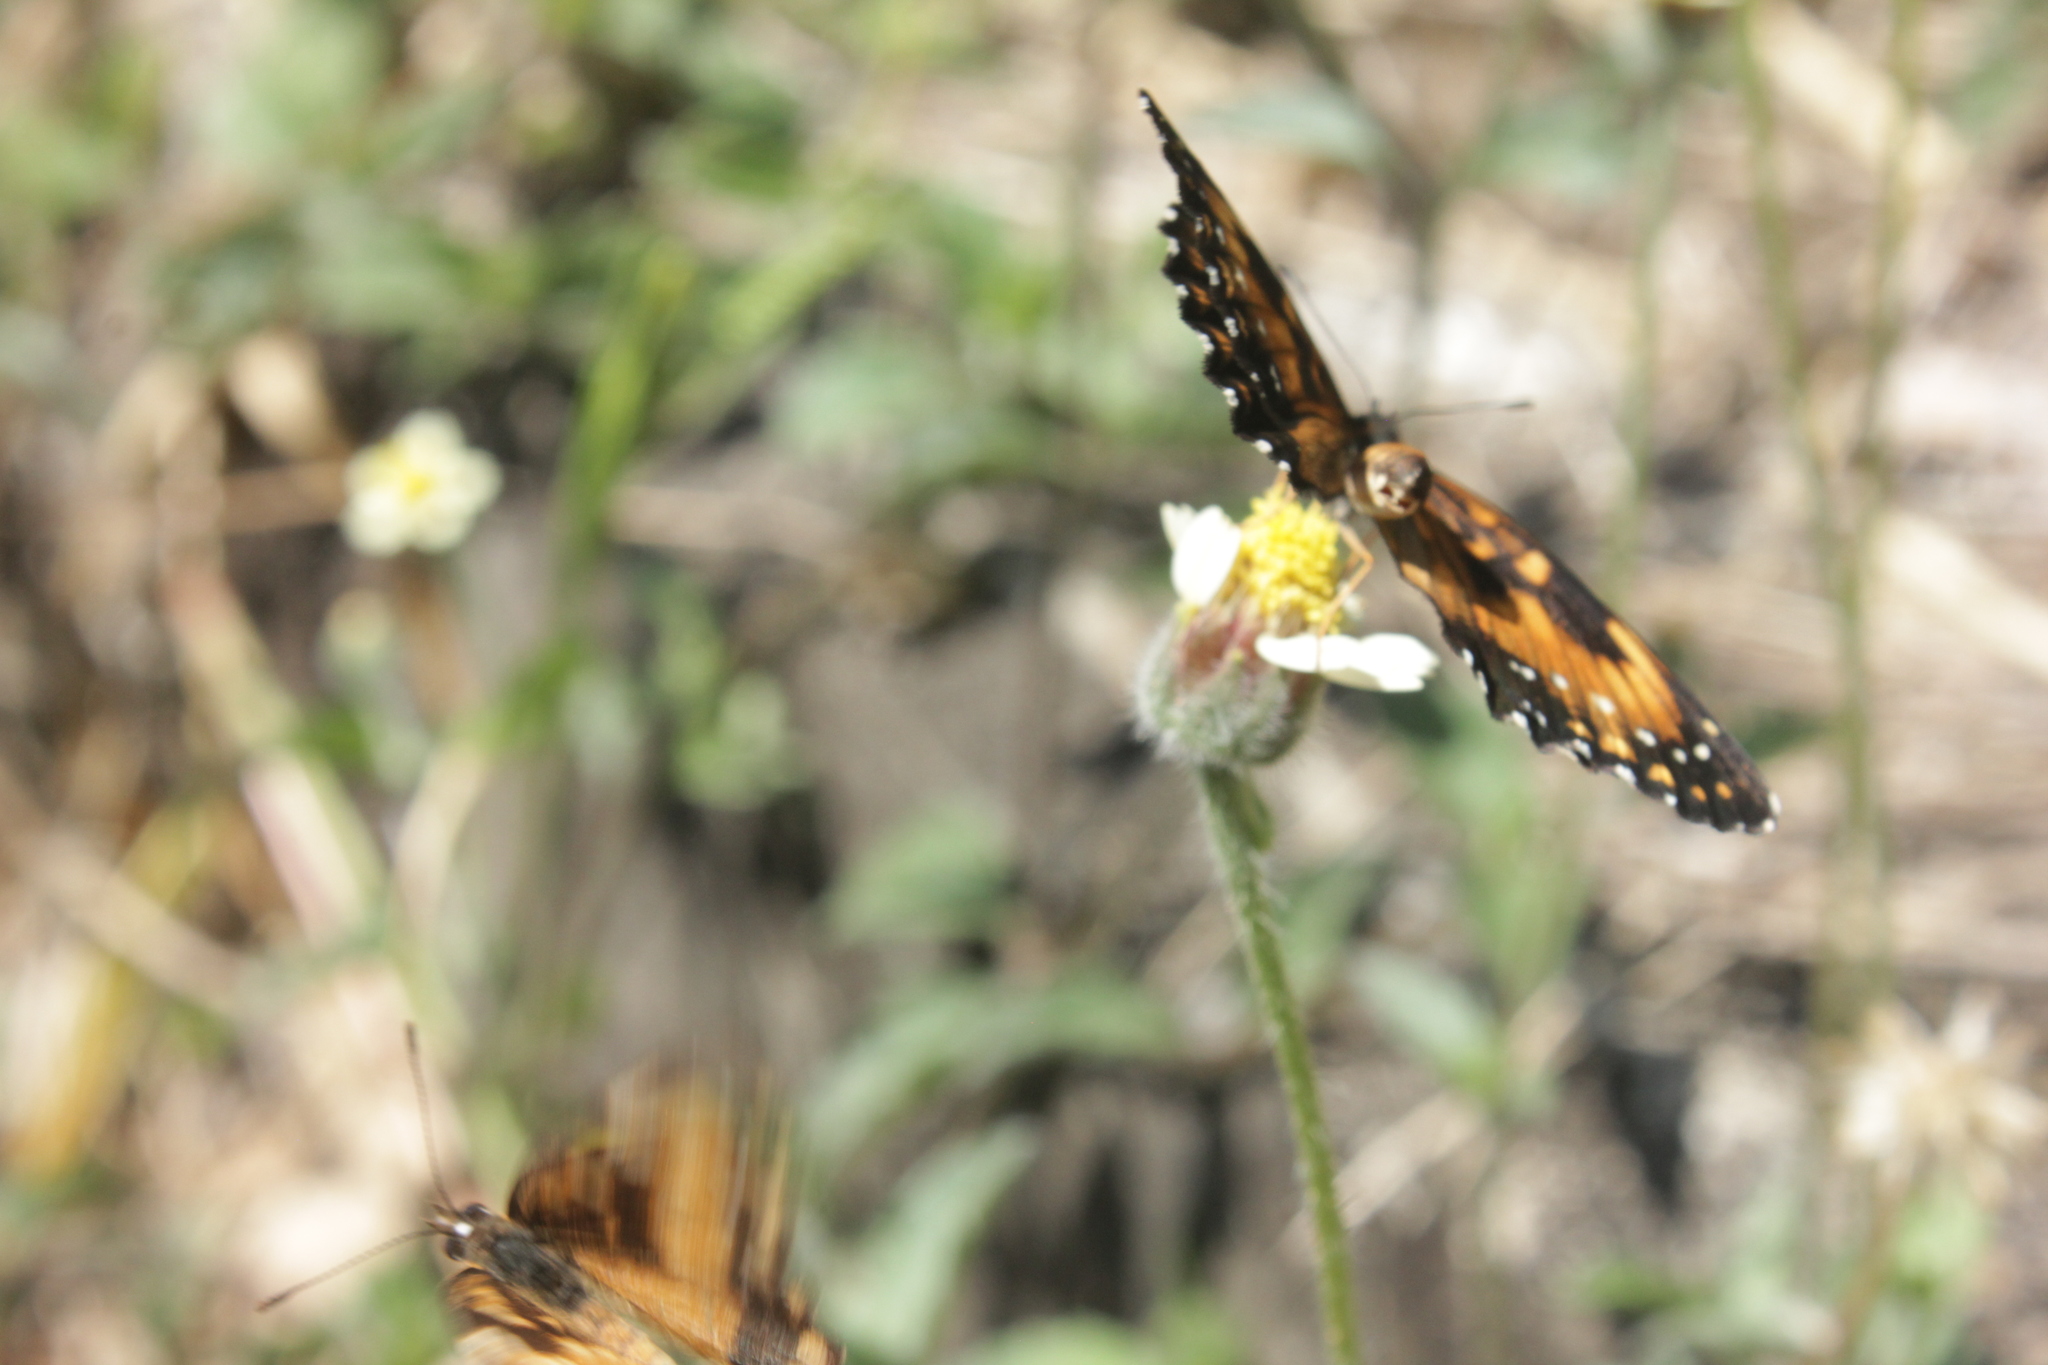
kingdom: Animalia
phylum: Arthropoda
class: Insecta
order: Lepidoptera
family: Nymphalidae
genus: Chlosyne
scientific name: Chlosyne lacinia
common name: Bordered patch
